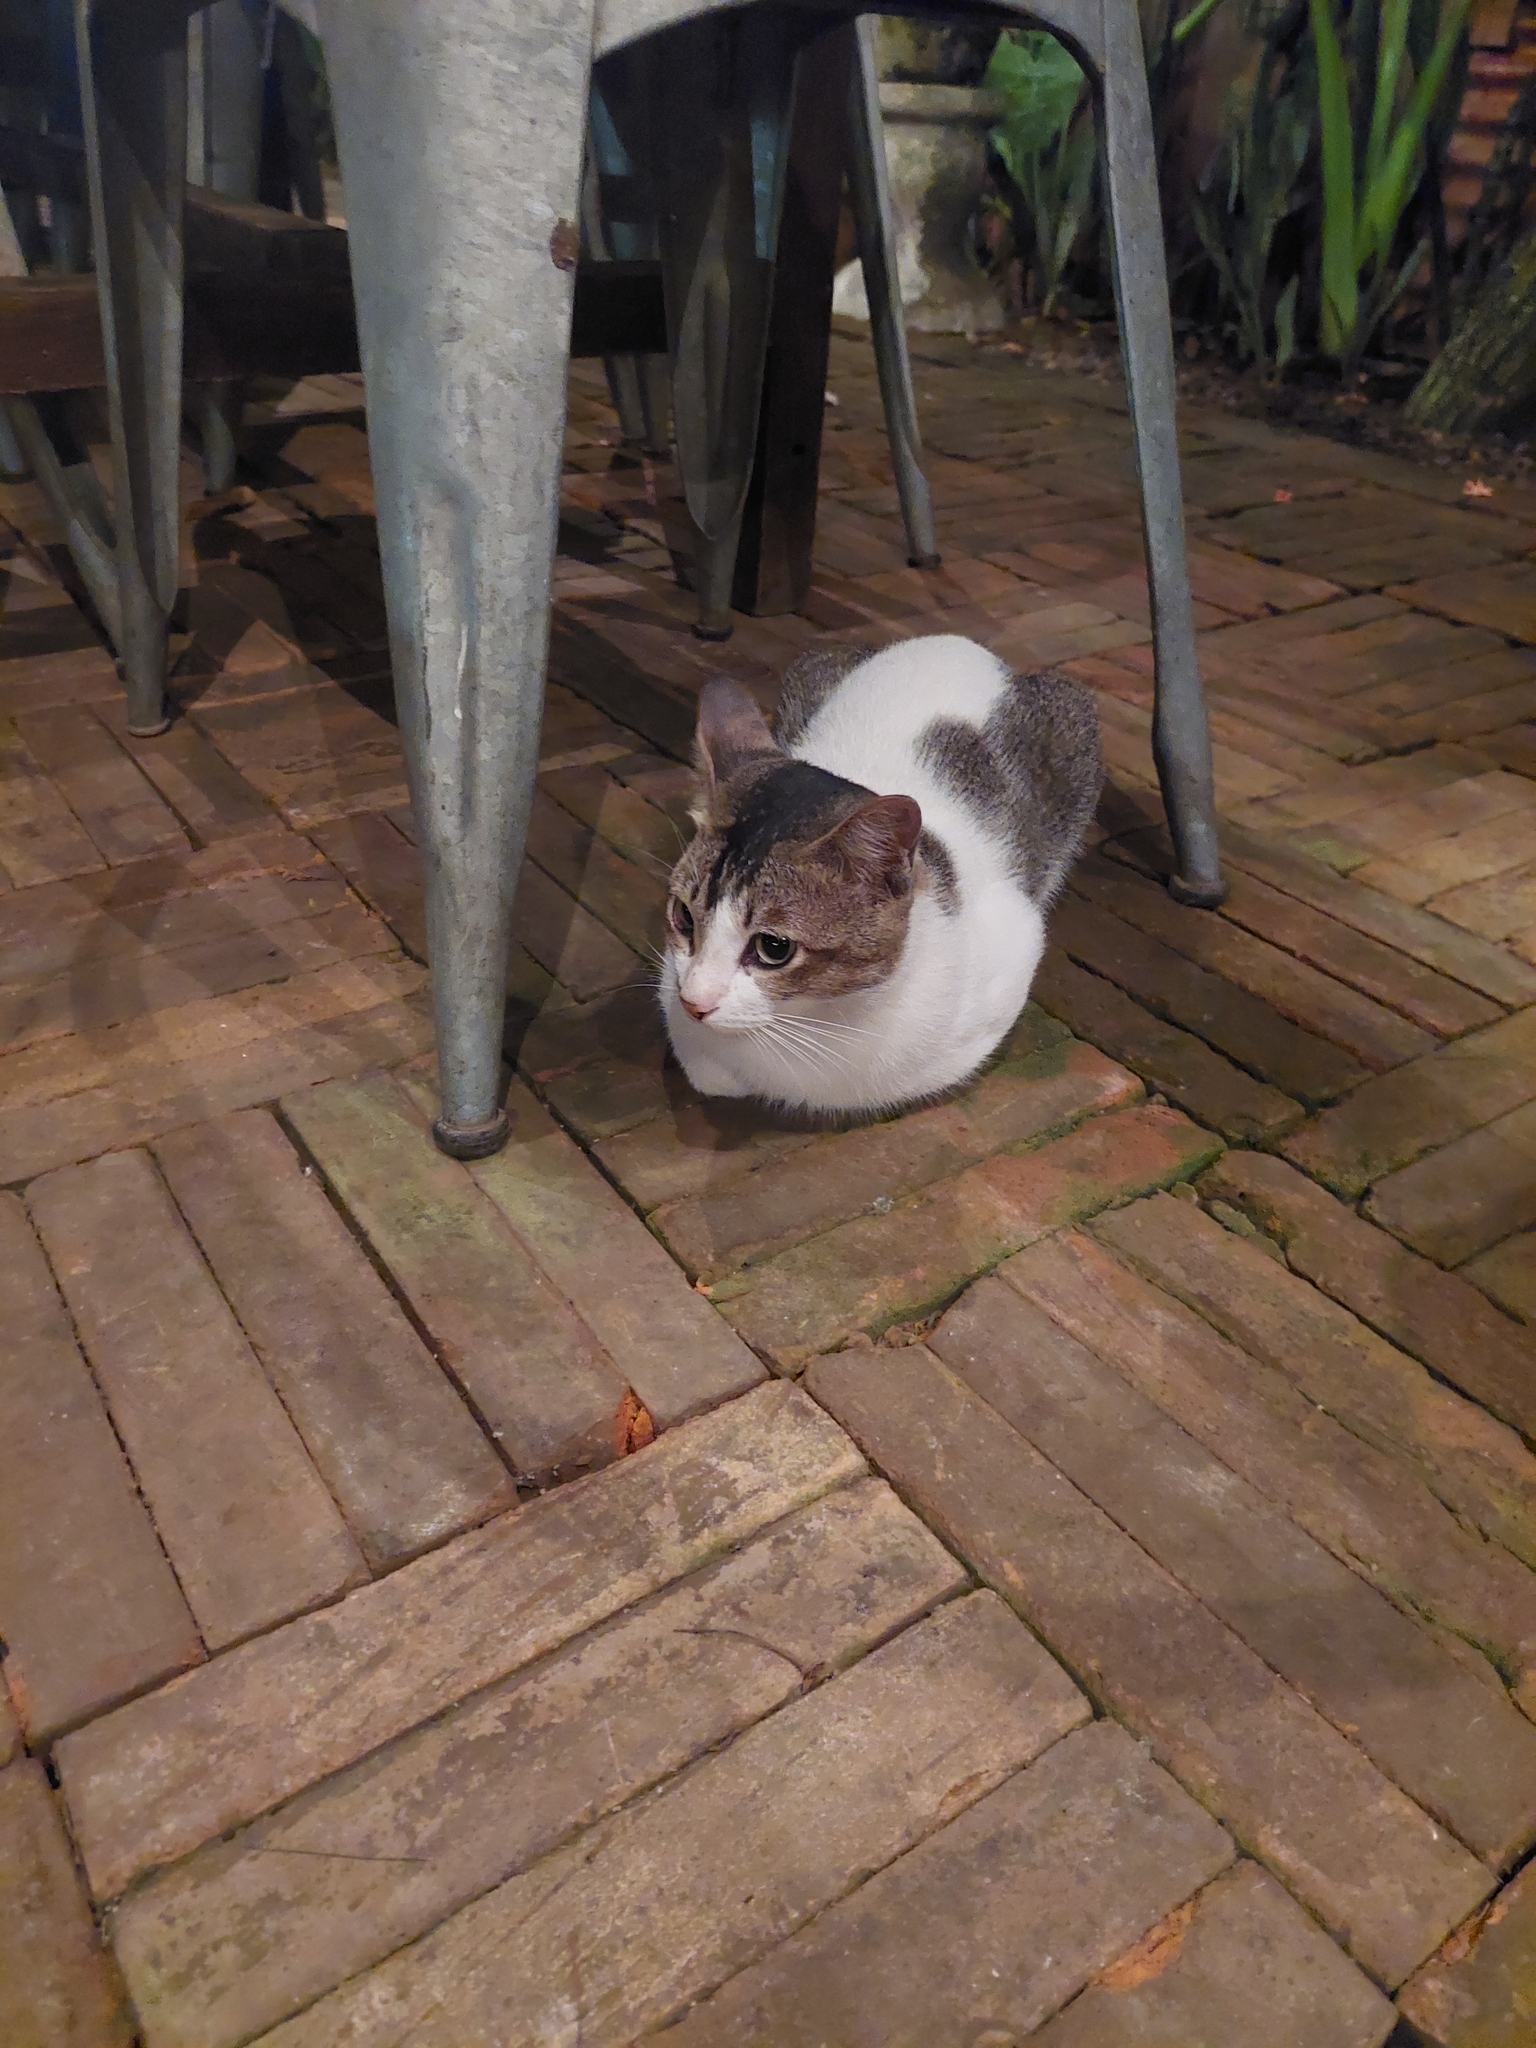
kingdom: Animalia
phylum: Chordata
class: Mammalia
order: Carnivora
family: Felidae
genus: Felis
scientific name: Felis catus
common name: Domestic cat
